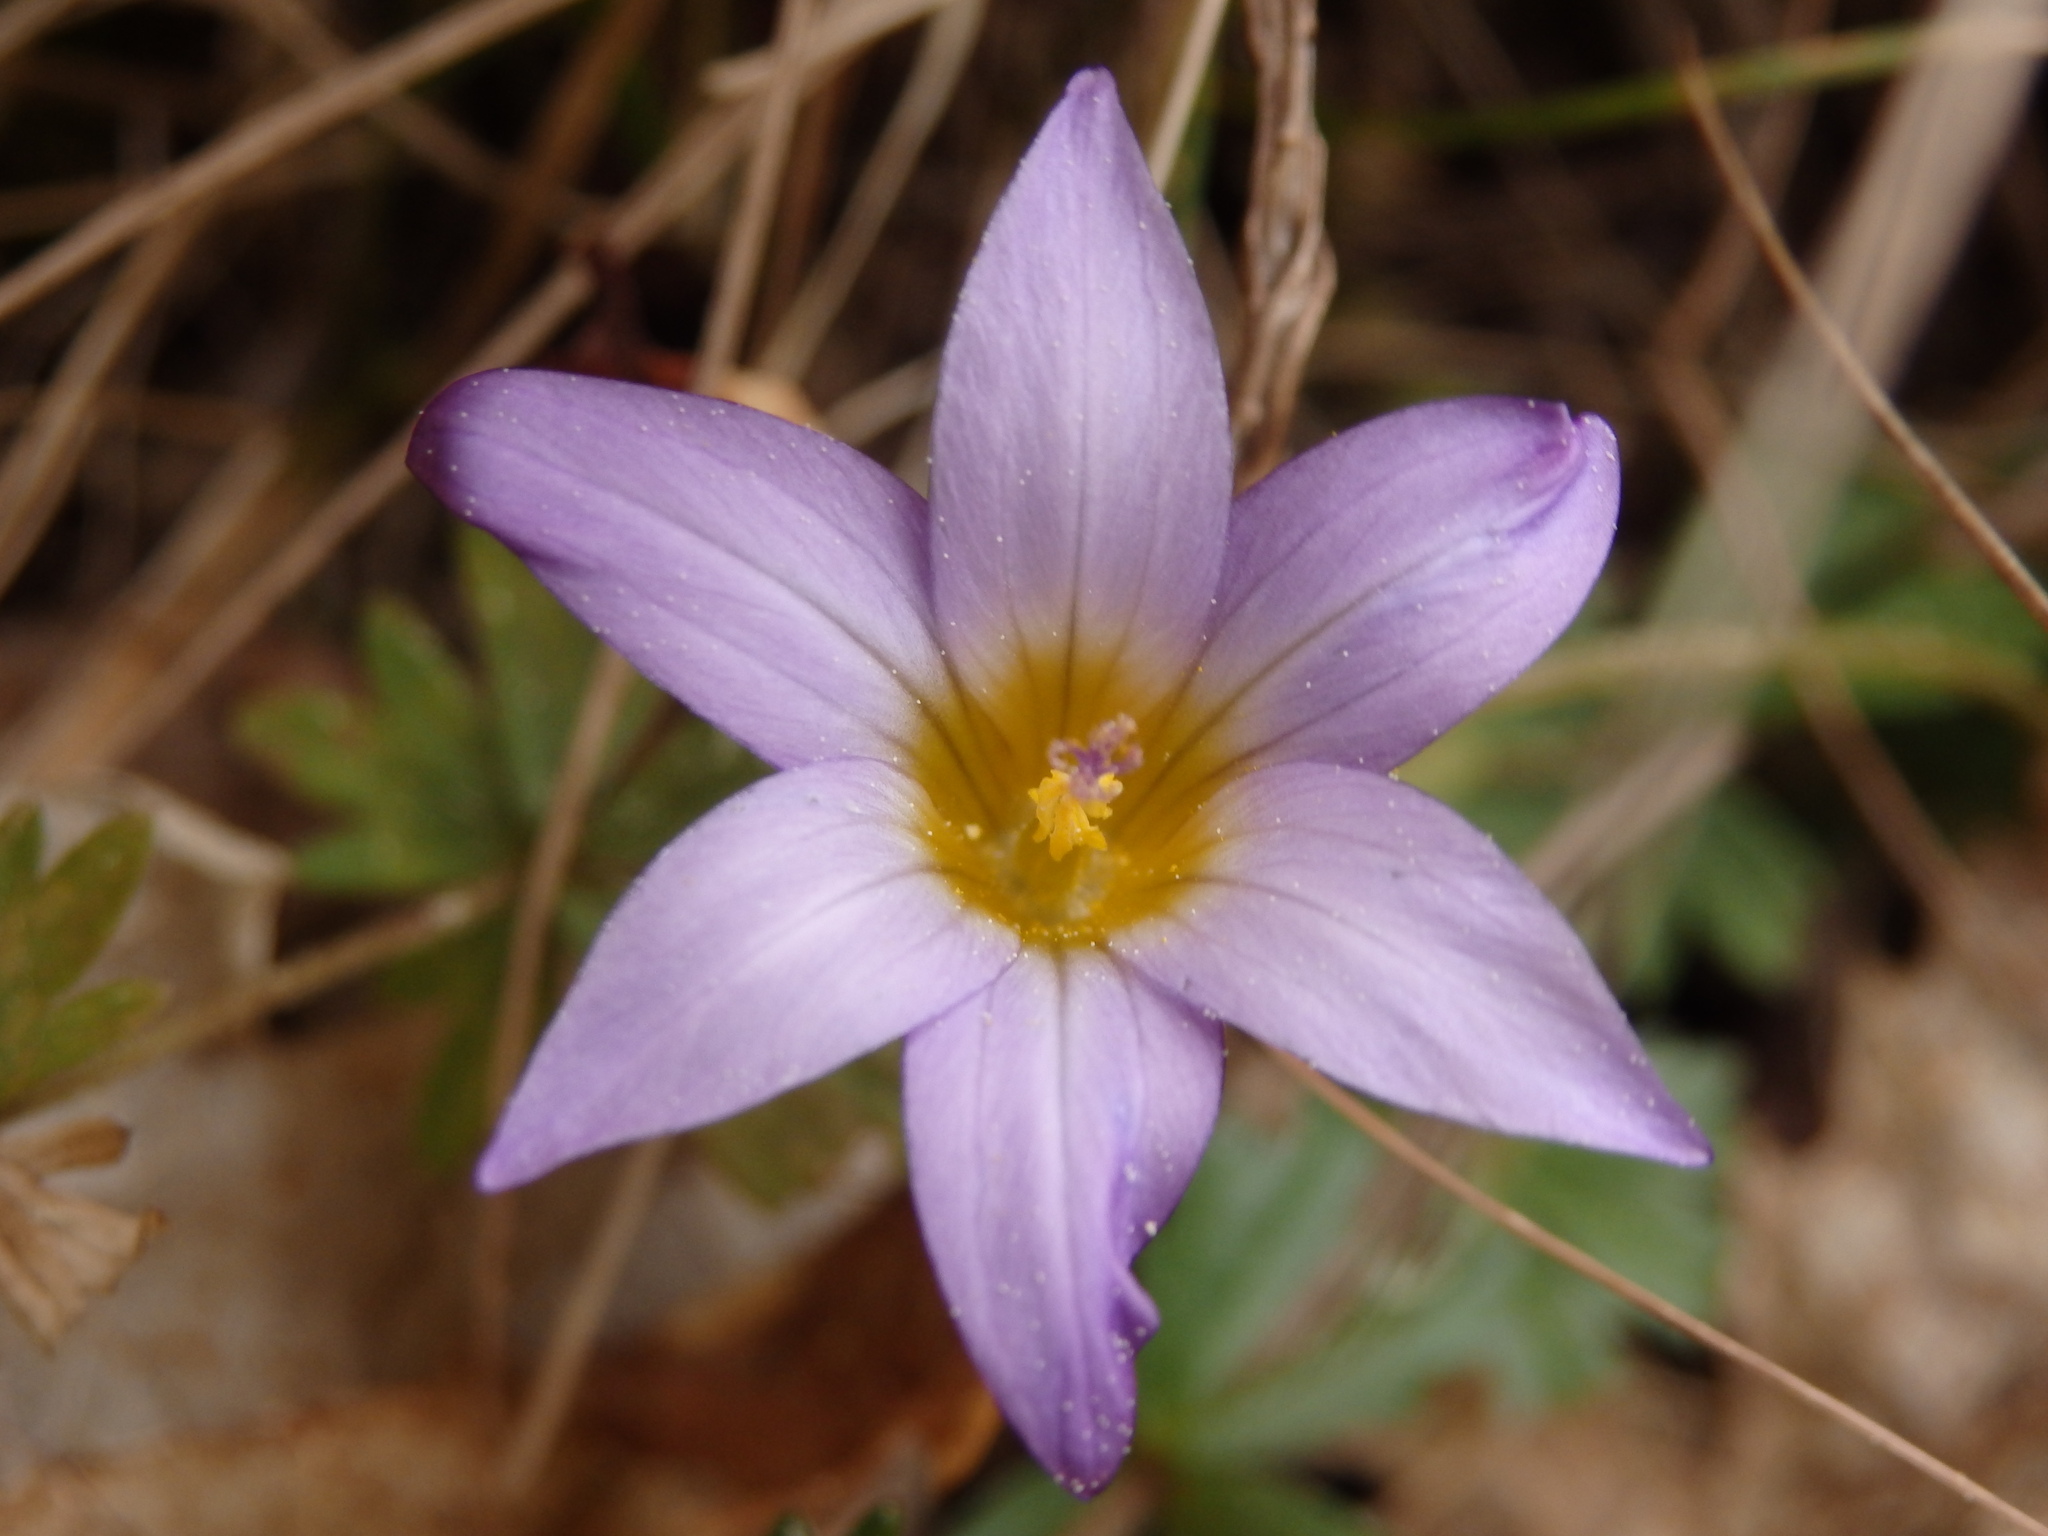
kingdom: Plantae
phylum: Tracheophyta
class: Liliopsida
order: Asparagales
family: Iridaceae
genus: Romulea
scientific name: Romulea bulbocodium
